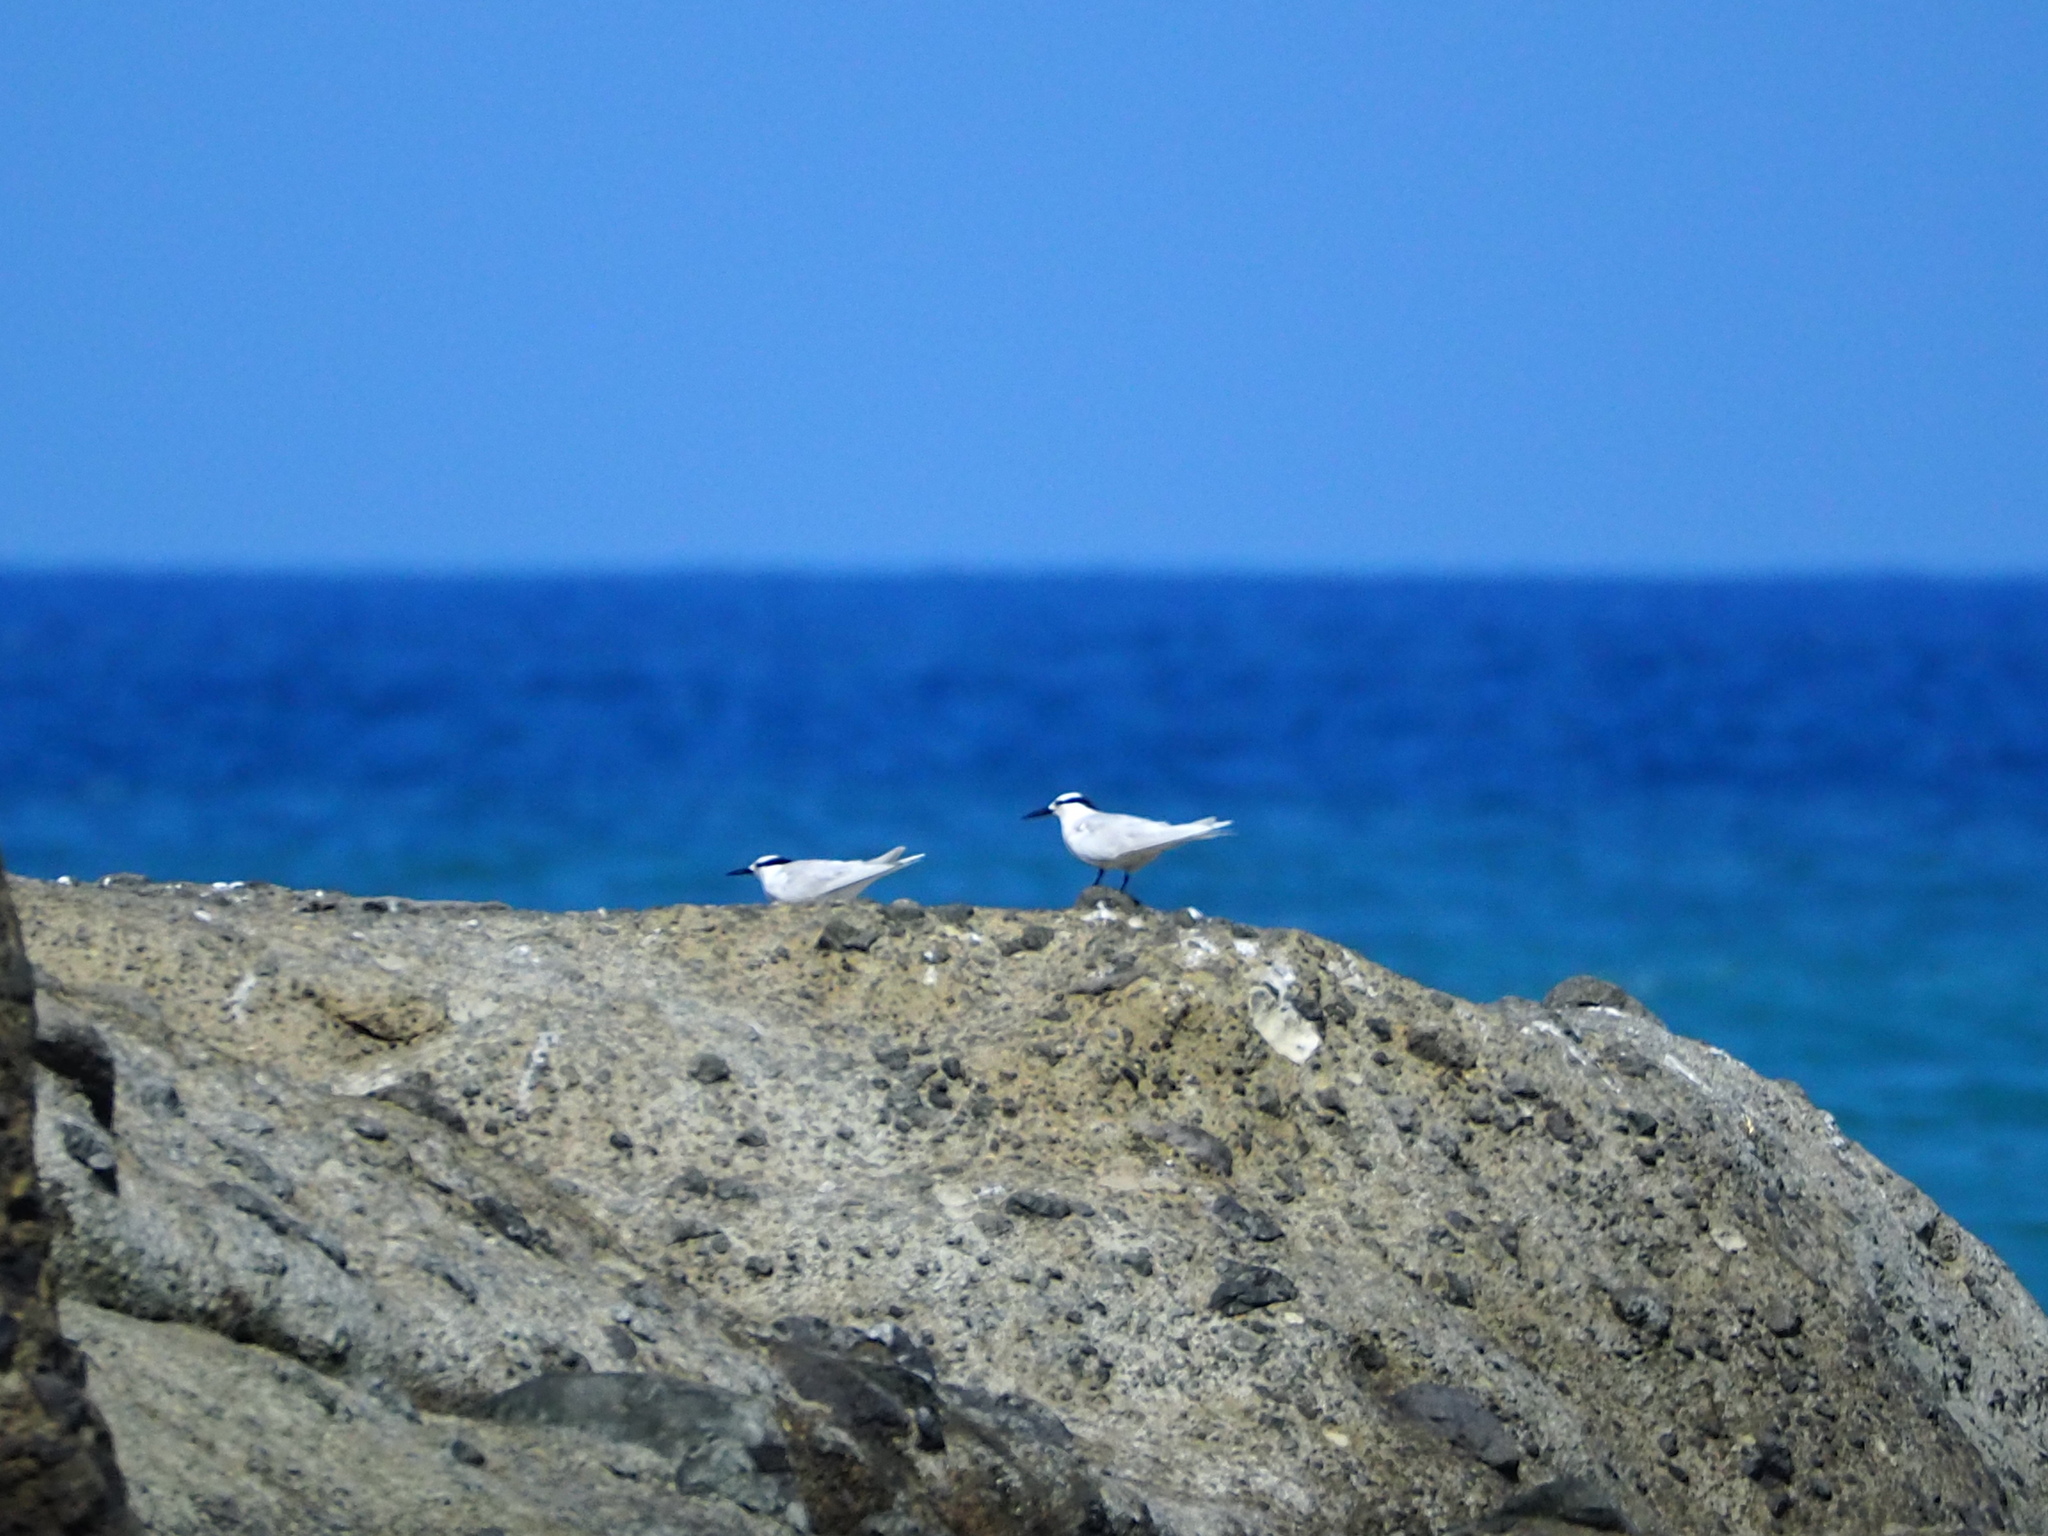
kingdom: Animalia
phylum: Chordata
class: Aves
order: Charadriiformes
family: Laridae
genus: Sterna
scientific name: Sterna sumatrana
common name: Black-naped tern
